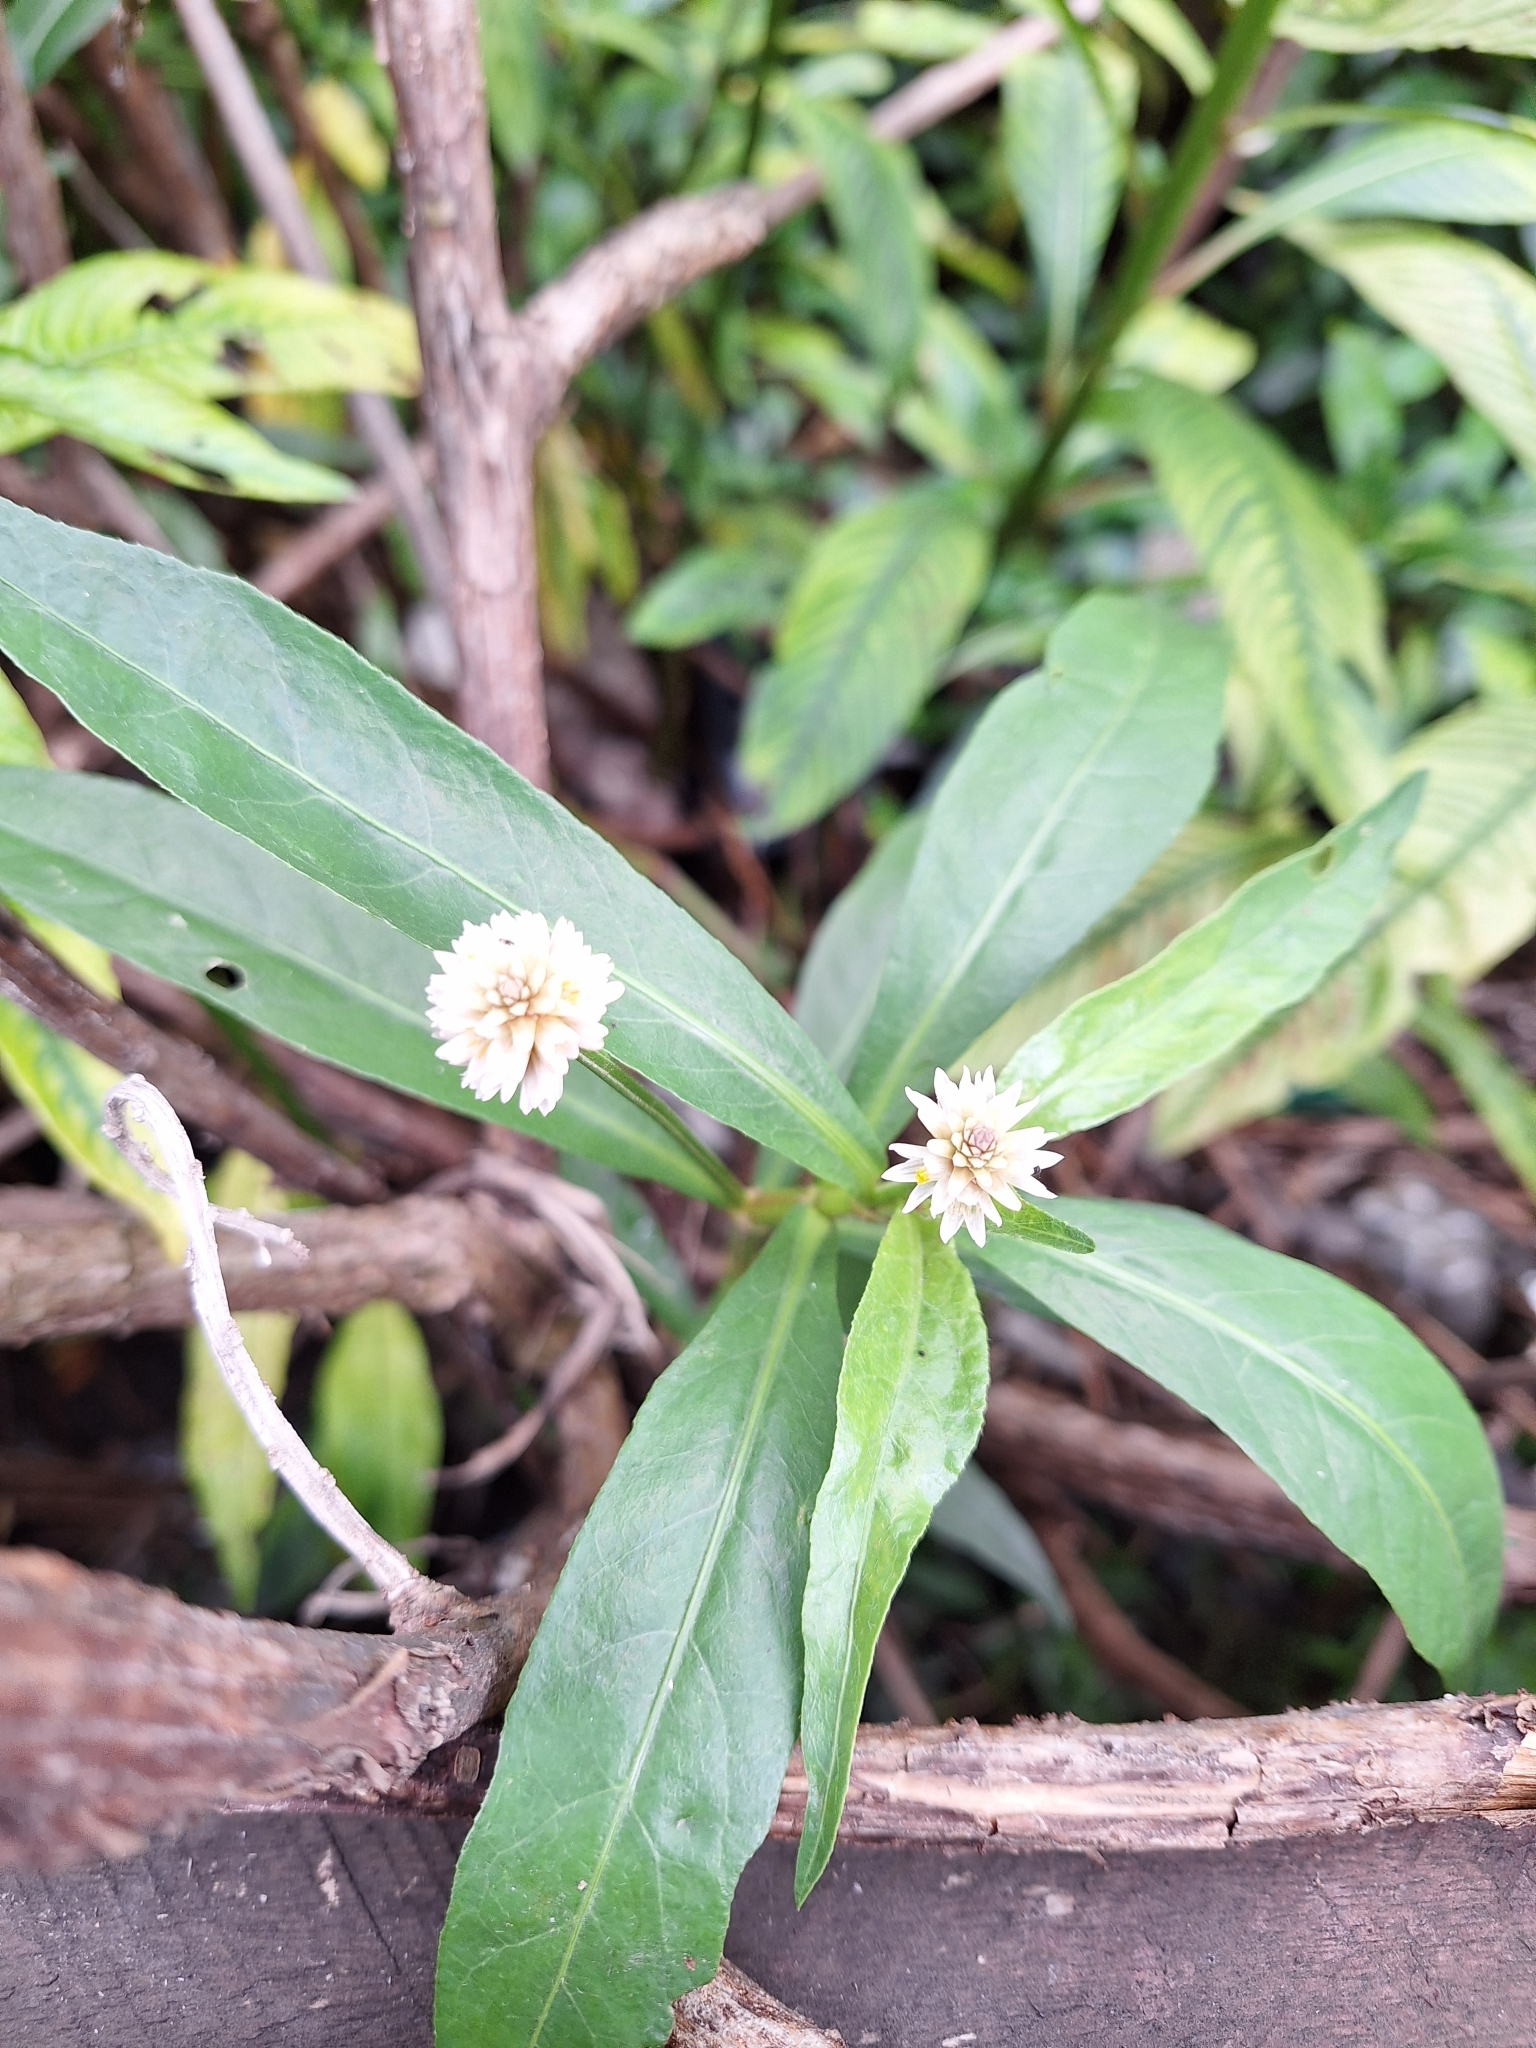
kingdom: Plantae
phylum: Tracheophyta
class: Magnoliopsida
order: Caryophyllales
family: Amaranthaceae
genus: Alternanthera
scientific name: Alternanthera philoxeroides
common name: Alligatorweed
